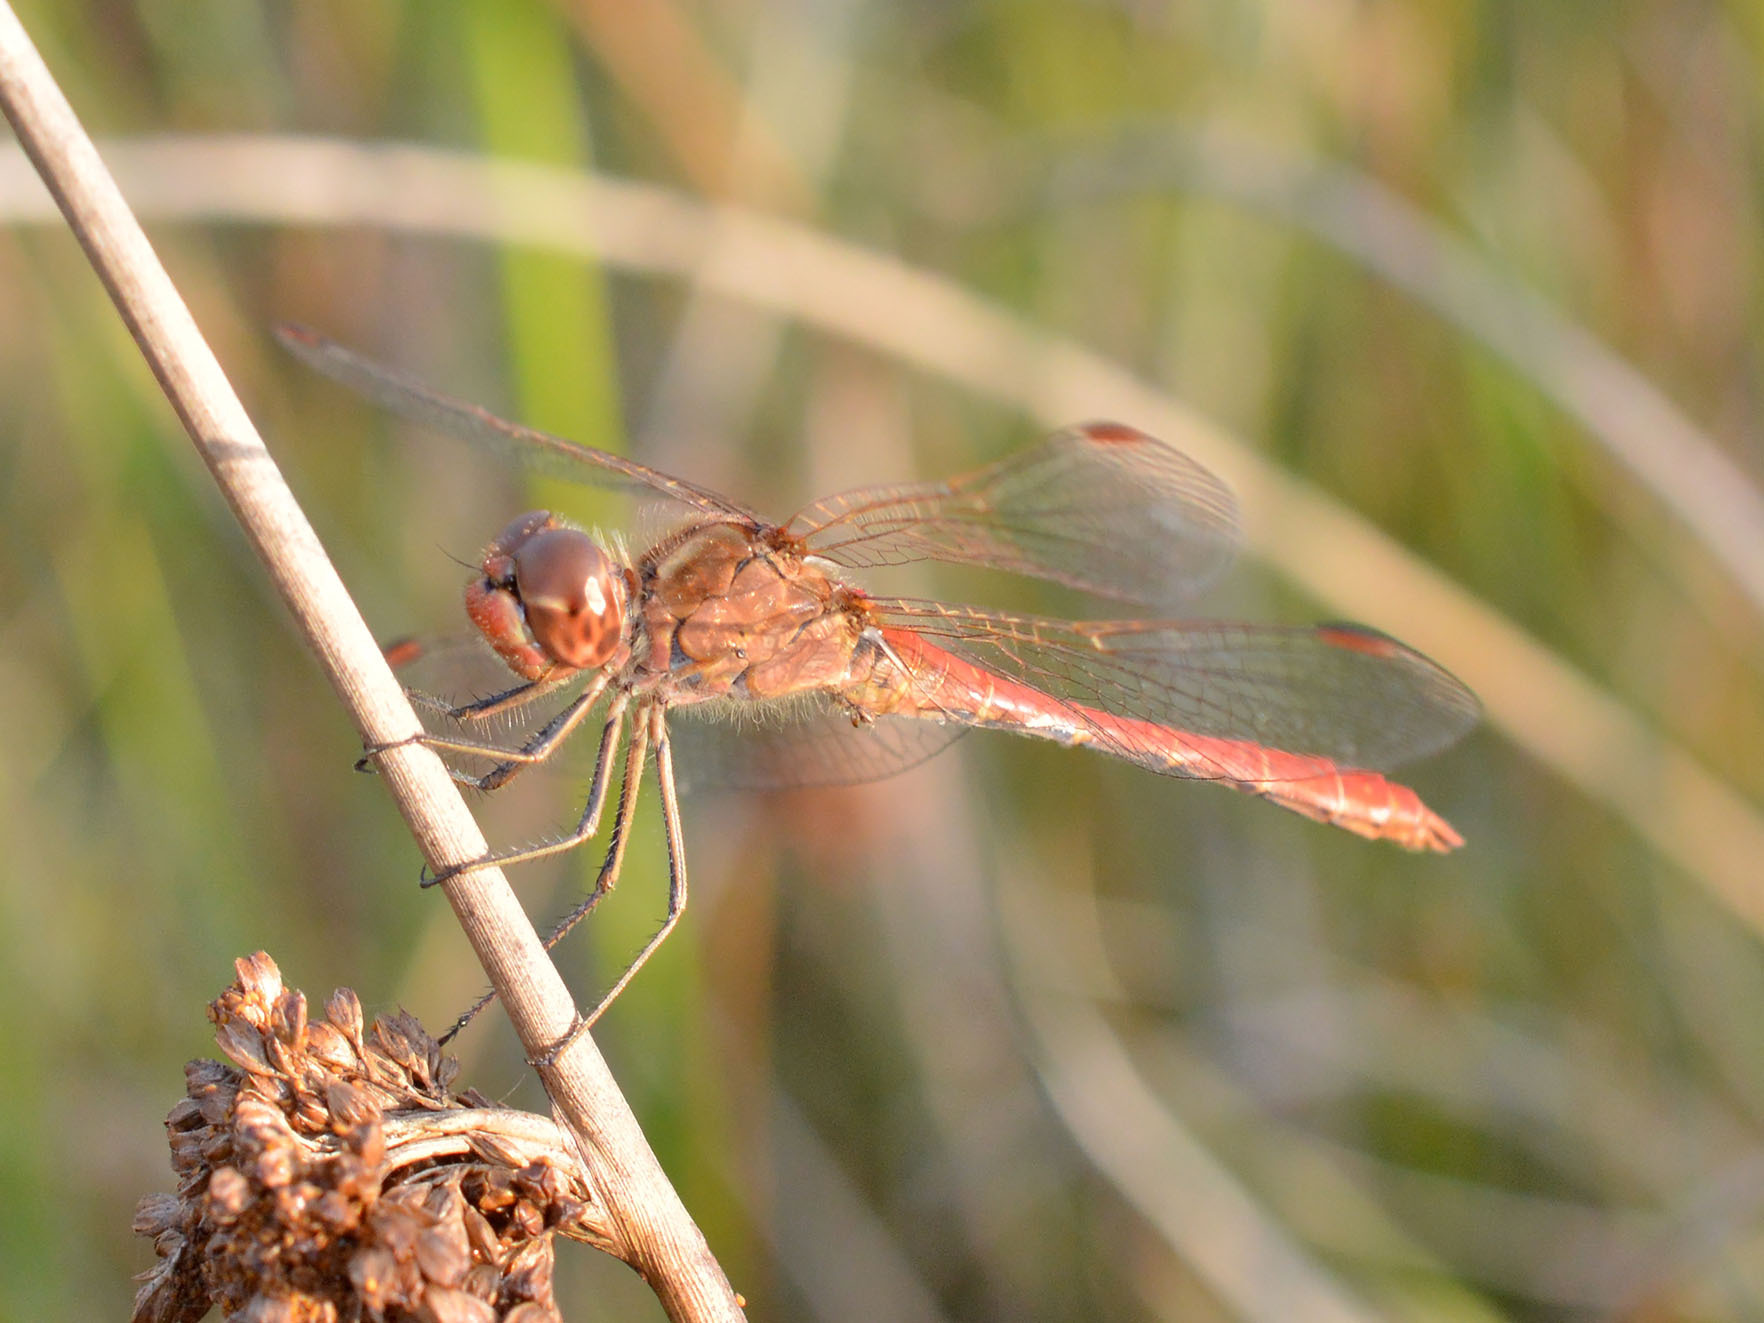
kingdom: Animalia
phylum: Arthropoda
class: Insecta
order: Odonata
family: Libellulidae
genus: Sympetrum
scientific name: Sympetrum meridionale
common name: Southern darter
